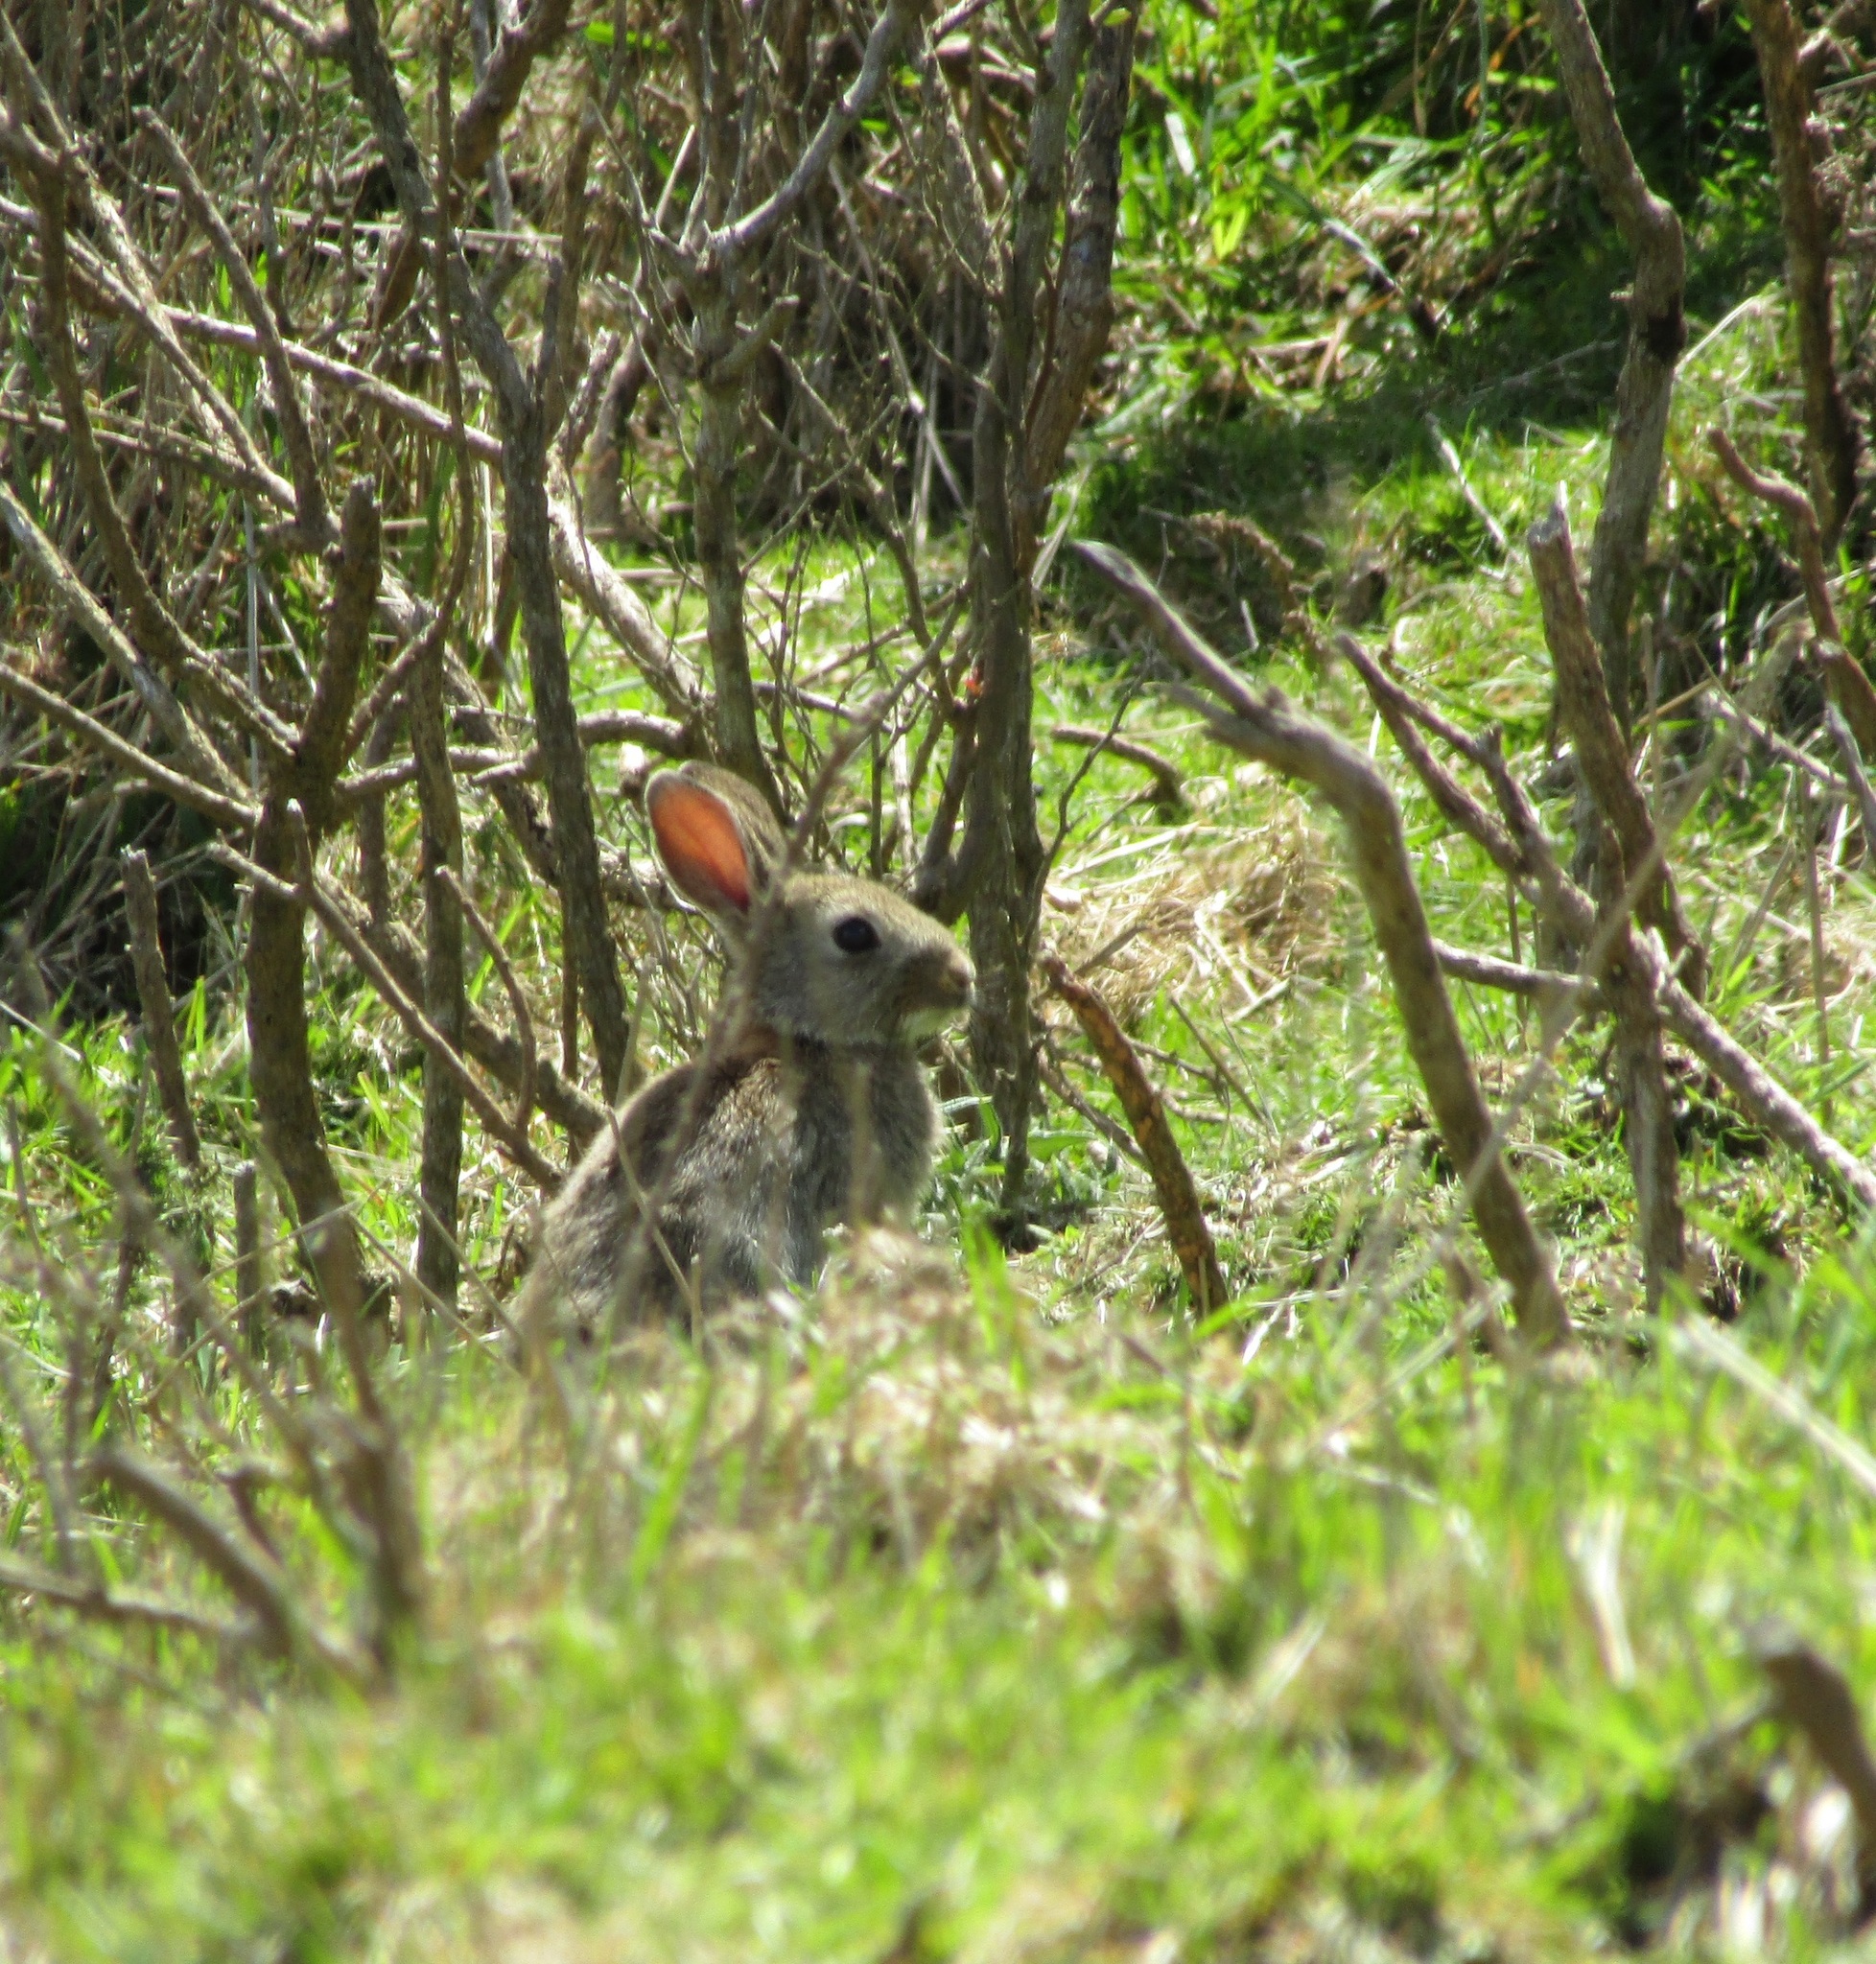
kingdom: Animalia
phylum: Chordata
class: Mammalia
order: Lagomorpha
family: Leporidae
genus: Oryctolagus
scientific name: Oryctolagus cuniculus
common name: European rabbit
